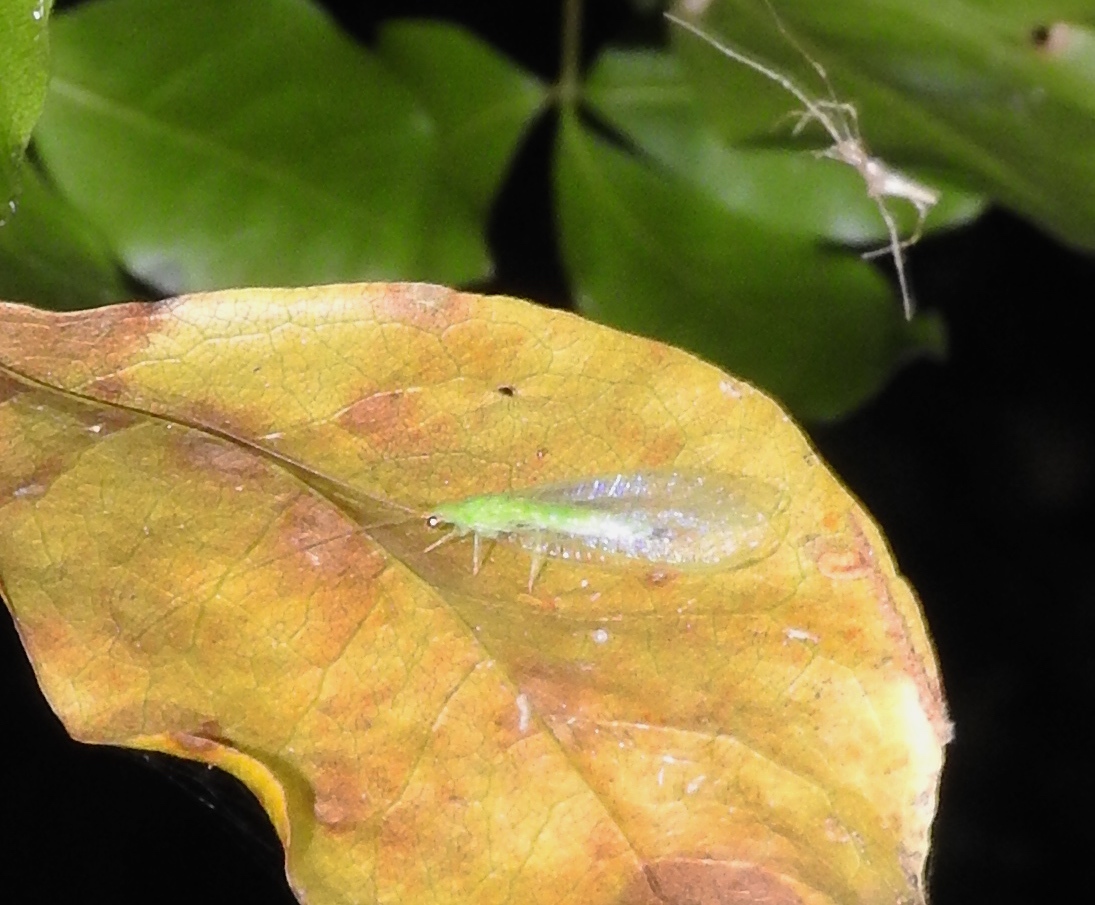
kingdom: Animalia
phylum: Arthropoda
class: Insecta
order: Neuroptera
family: Chrysopidae
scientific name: Chrysopidae
